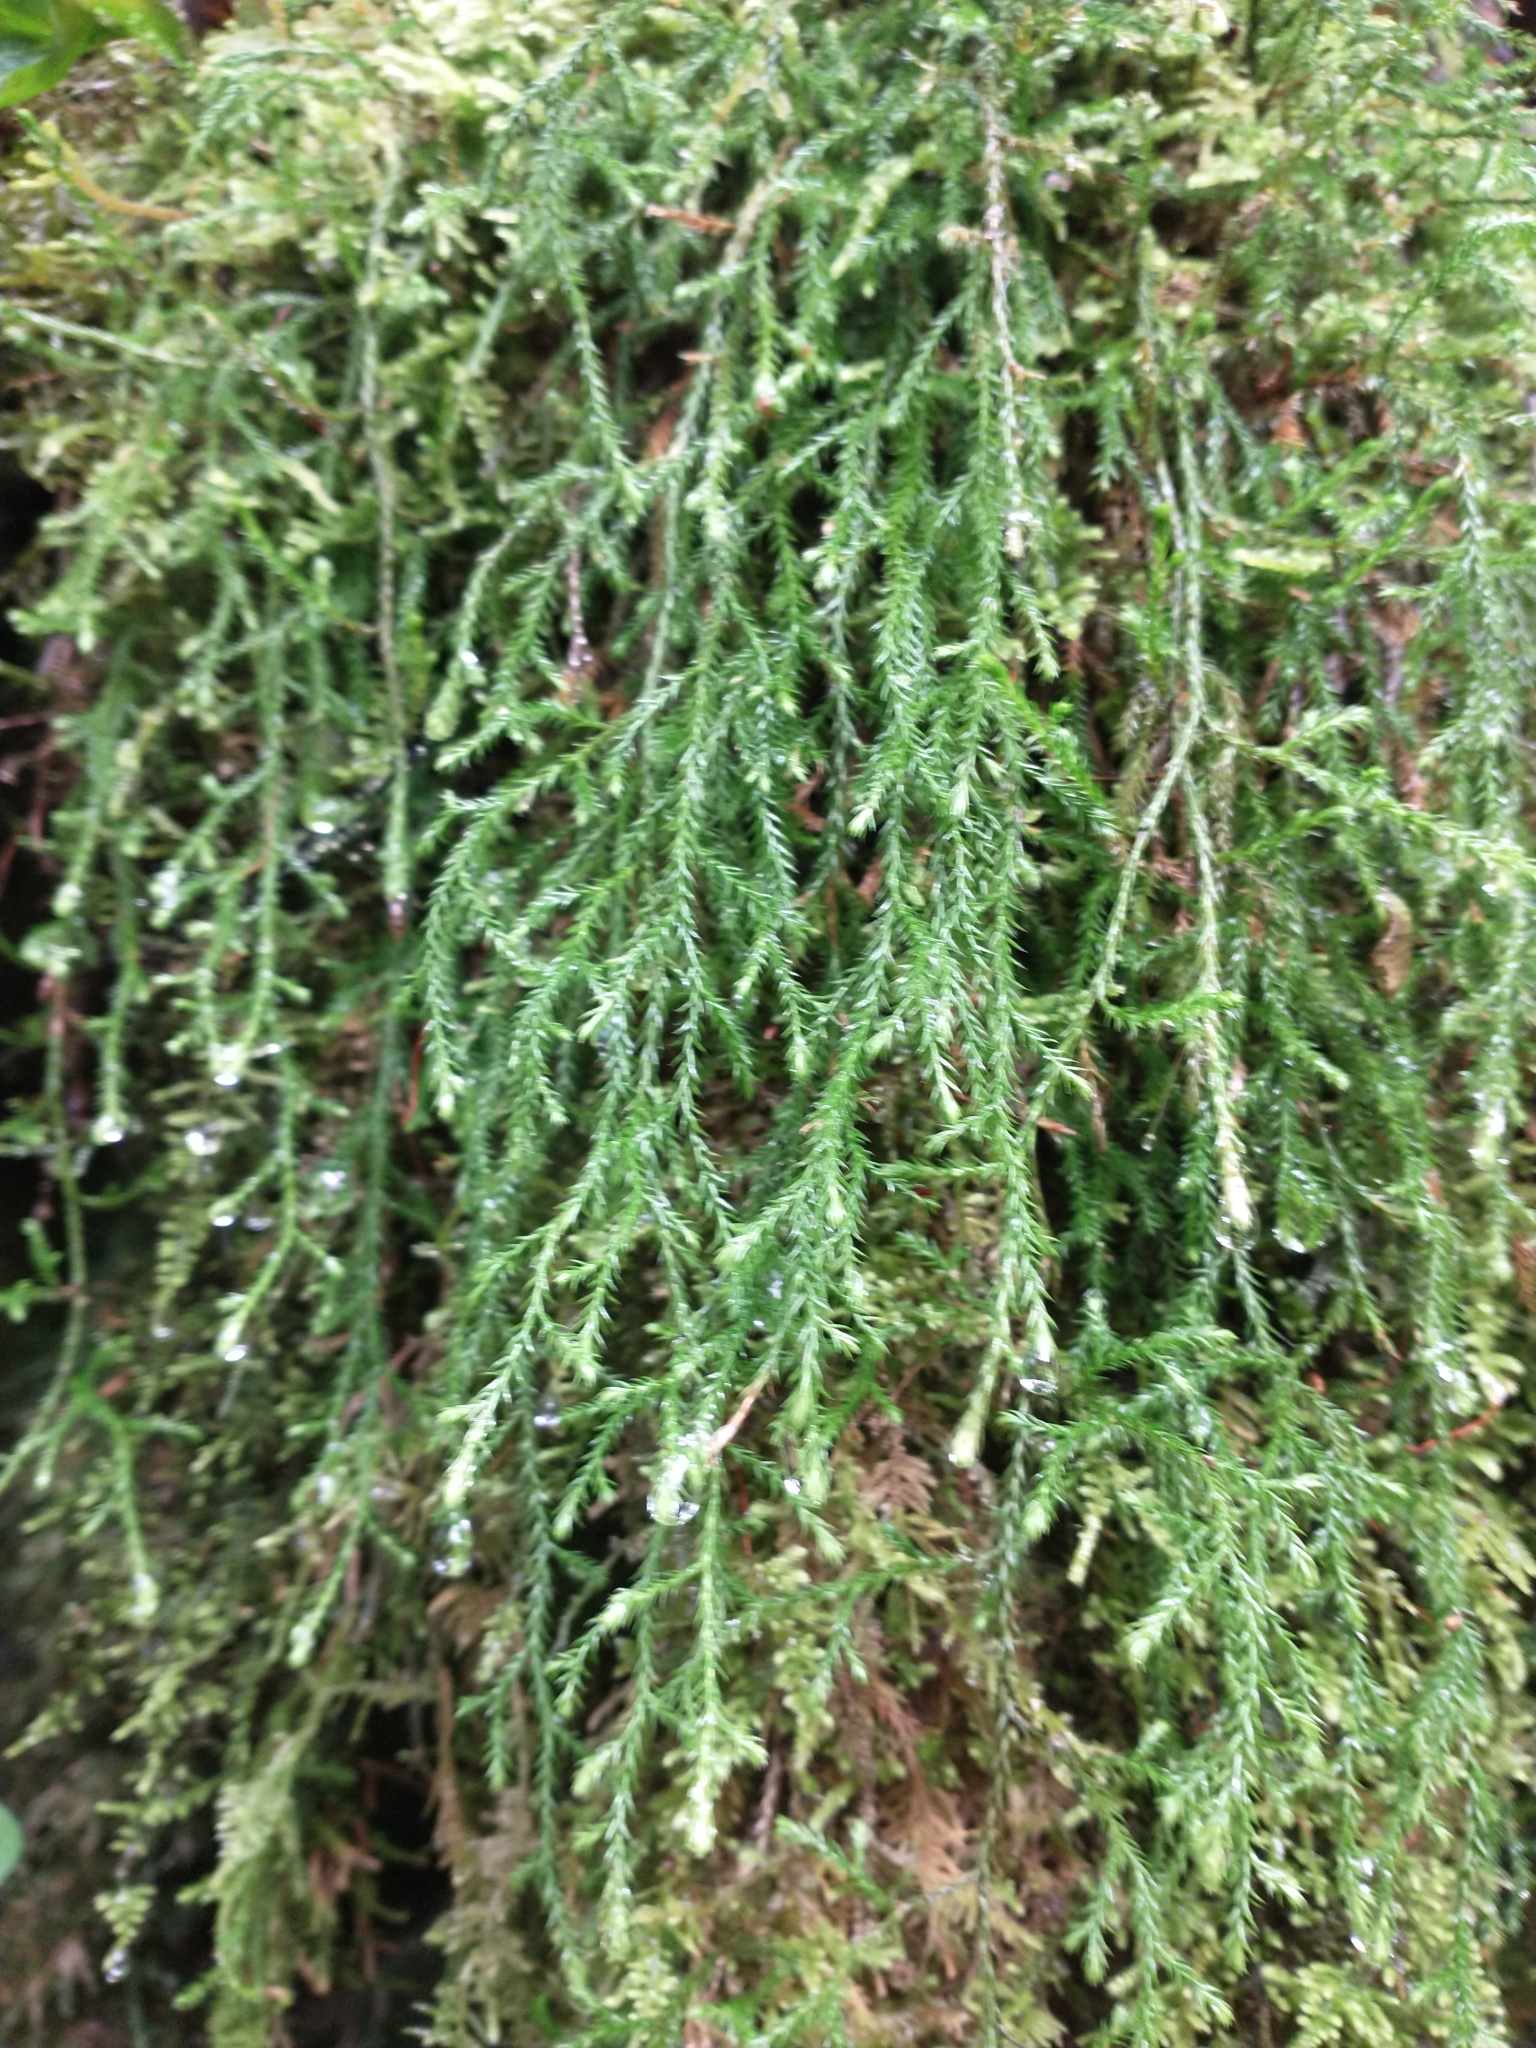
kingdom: Plantae
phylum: Tracheophyta
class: Lycopodiopsida
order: Selaginellales
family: Selaginellaceae
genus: Selaginella
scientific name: Selaginella oregana
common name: Oregon selaginella
